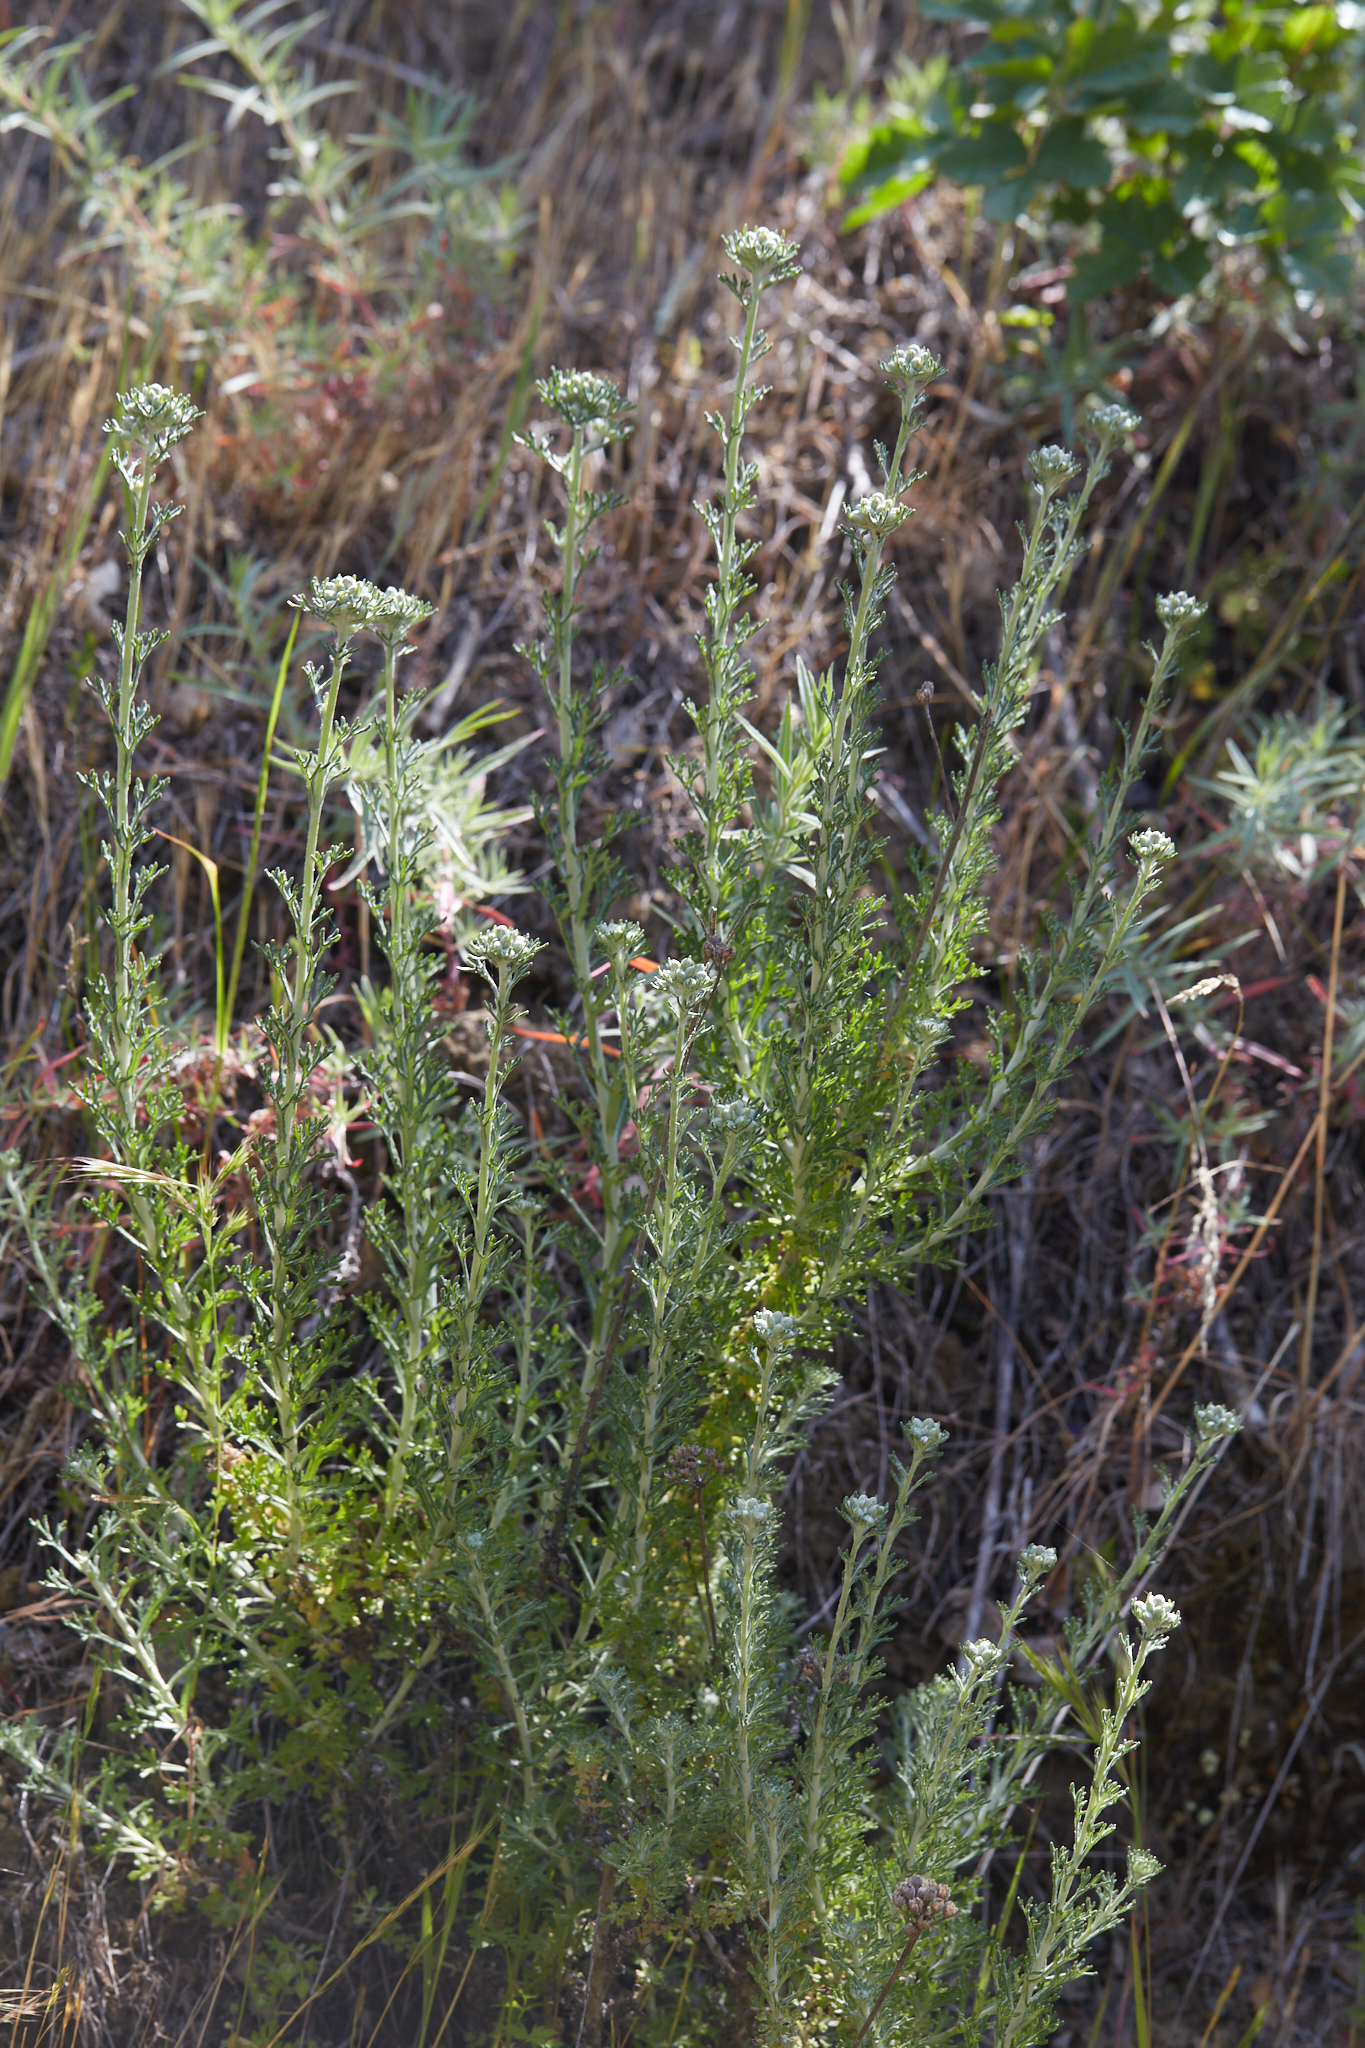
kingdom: Plantae
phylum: Tracheophyta
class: Magnoliopsida
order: Asterales
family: Asteraceae
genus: Eriophyllum
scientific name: Eriophyllum confertiflorum
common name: Golden-yarrow
